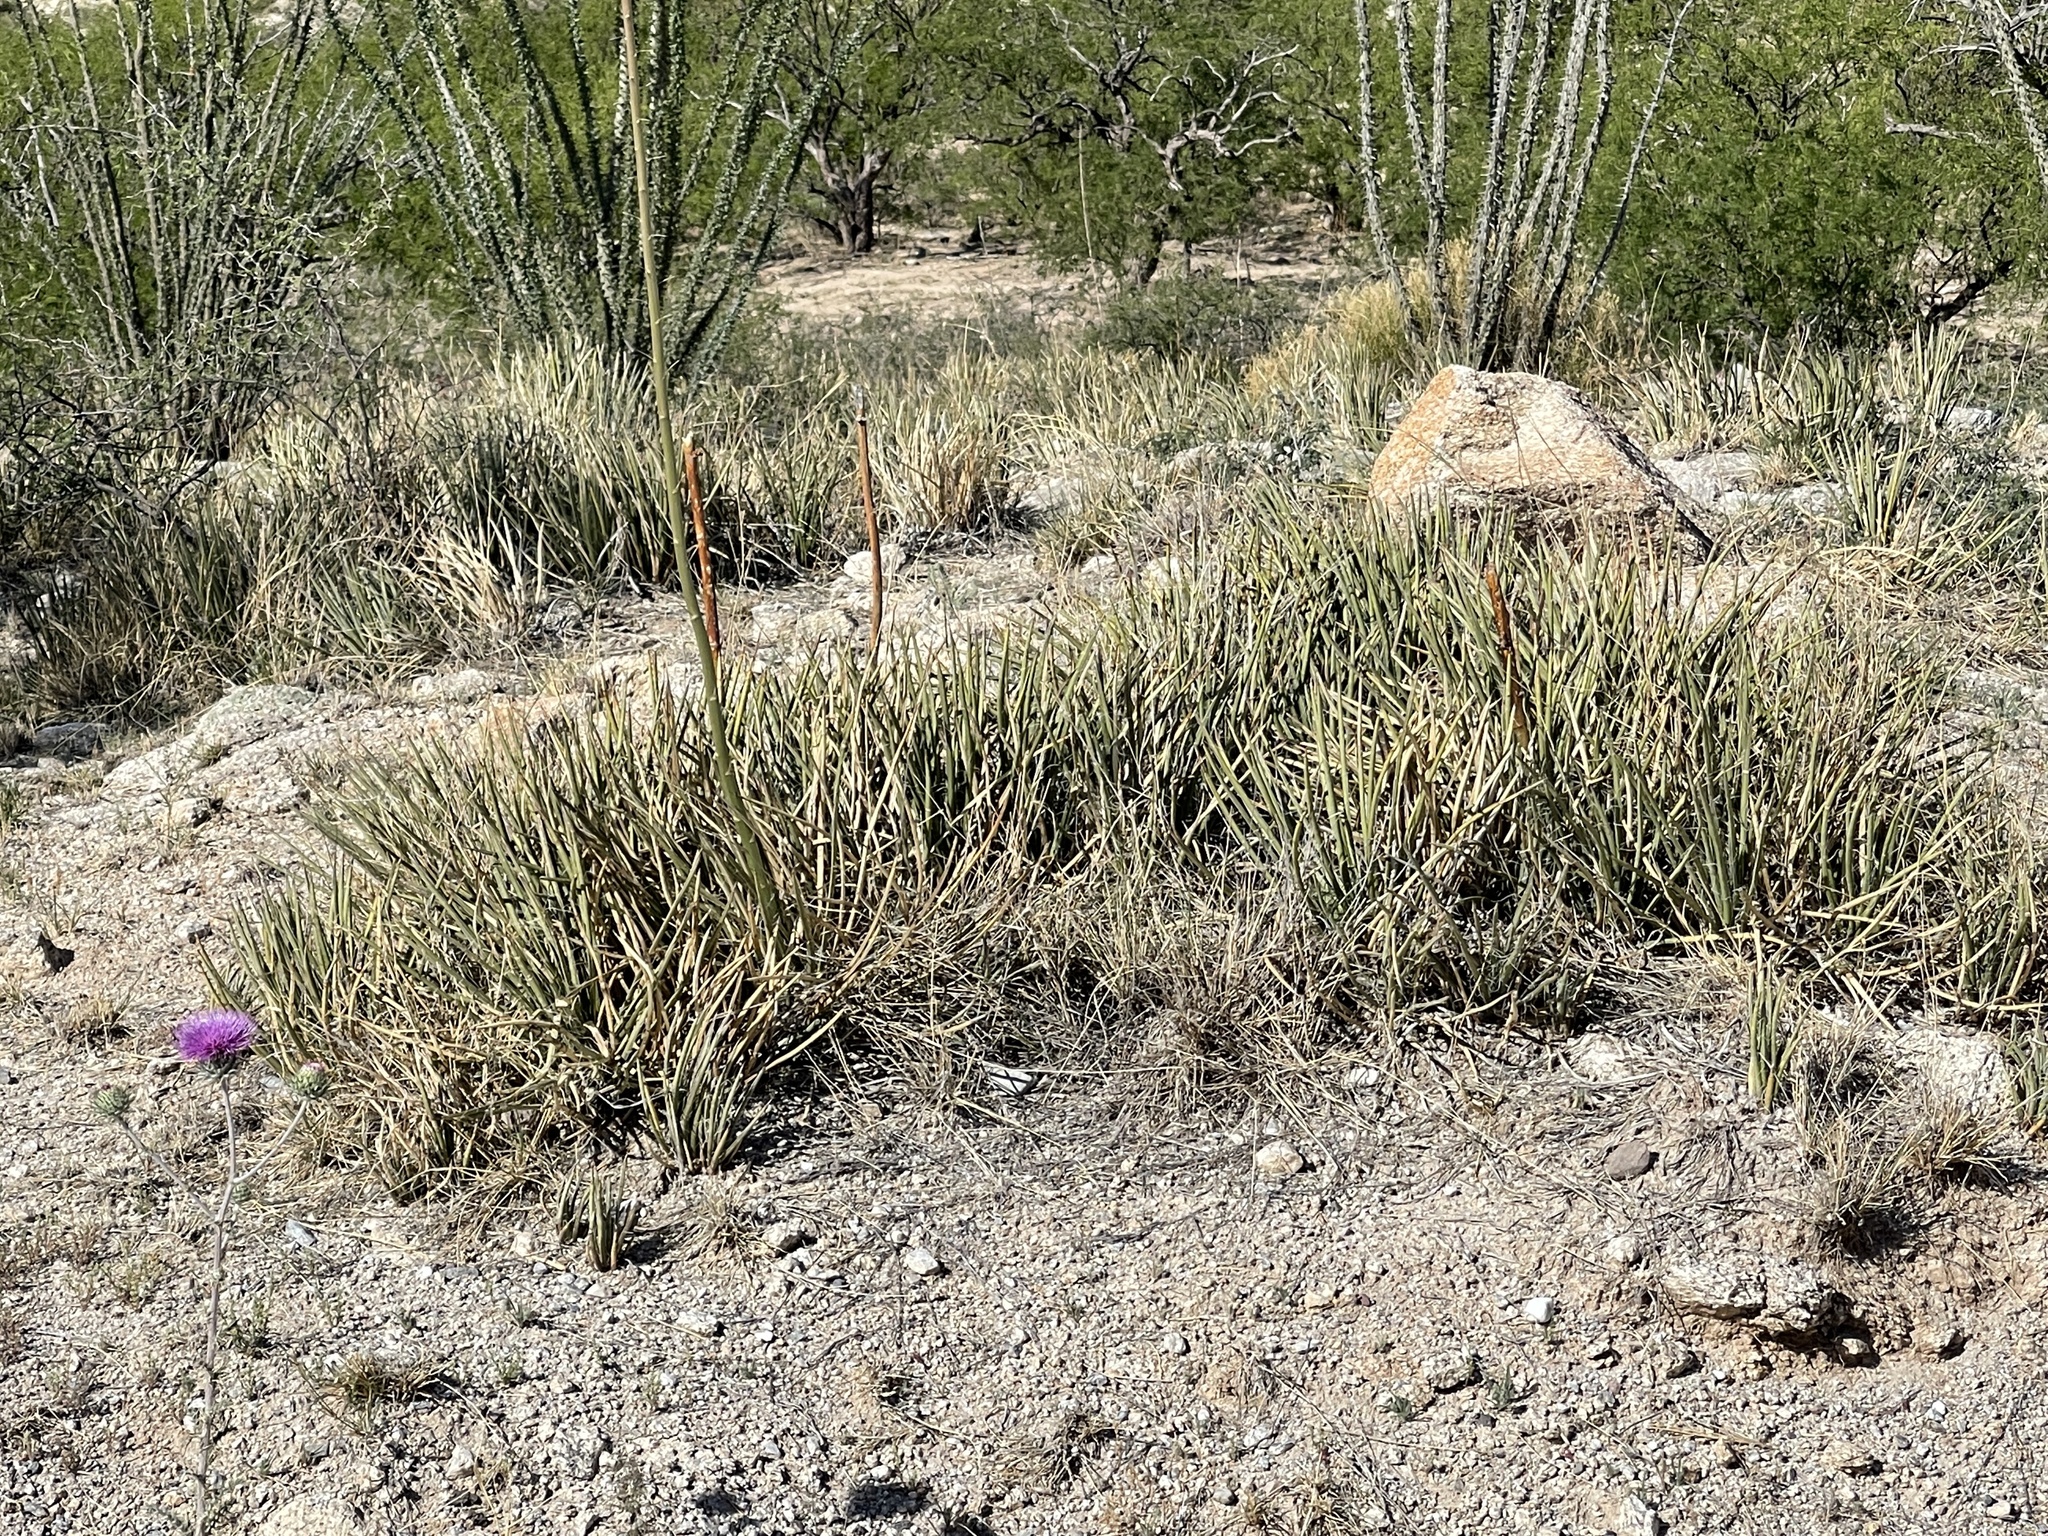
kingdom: Plantae
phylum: Tracheophyta
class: Liliopsida
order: Asparagales
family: Asparagaceae
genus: Agave
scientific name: Agave schottii
